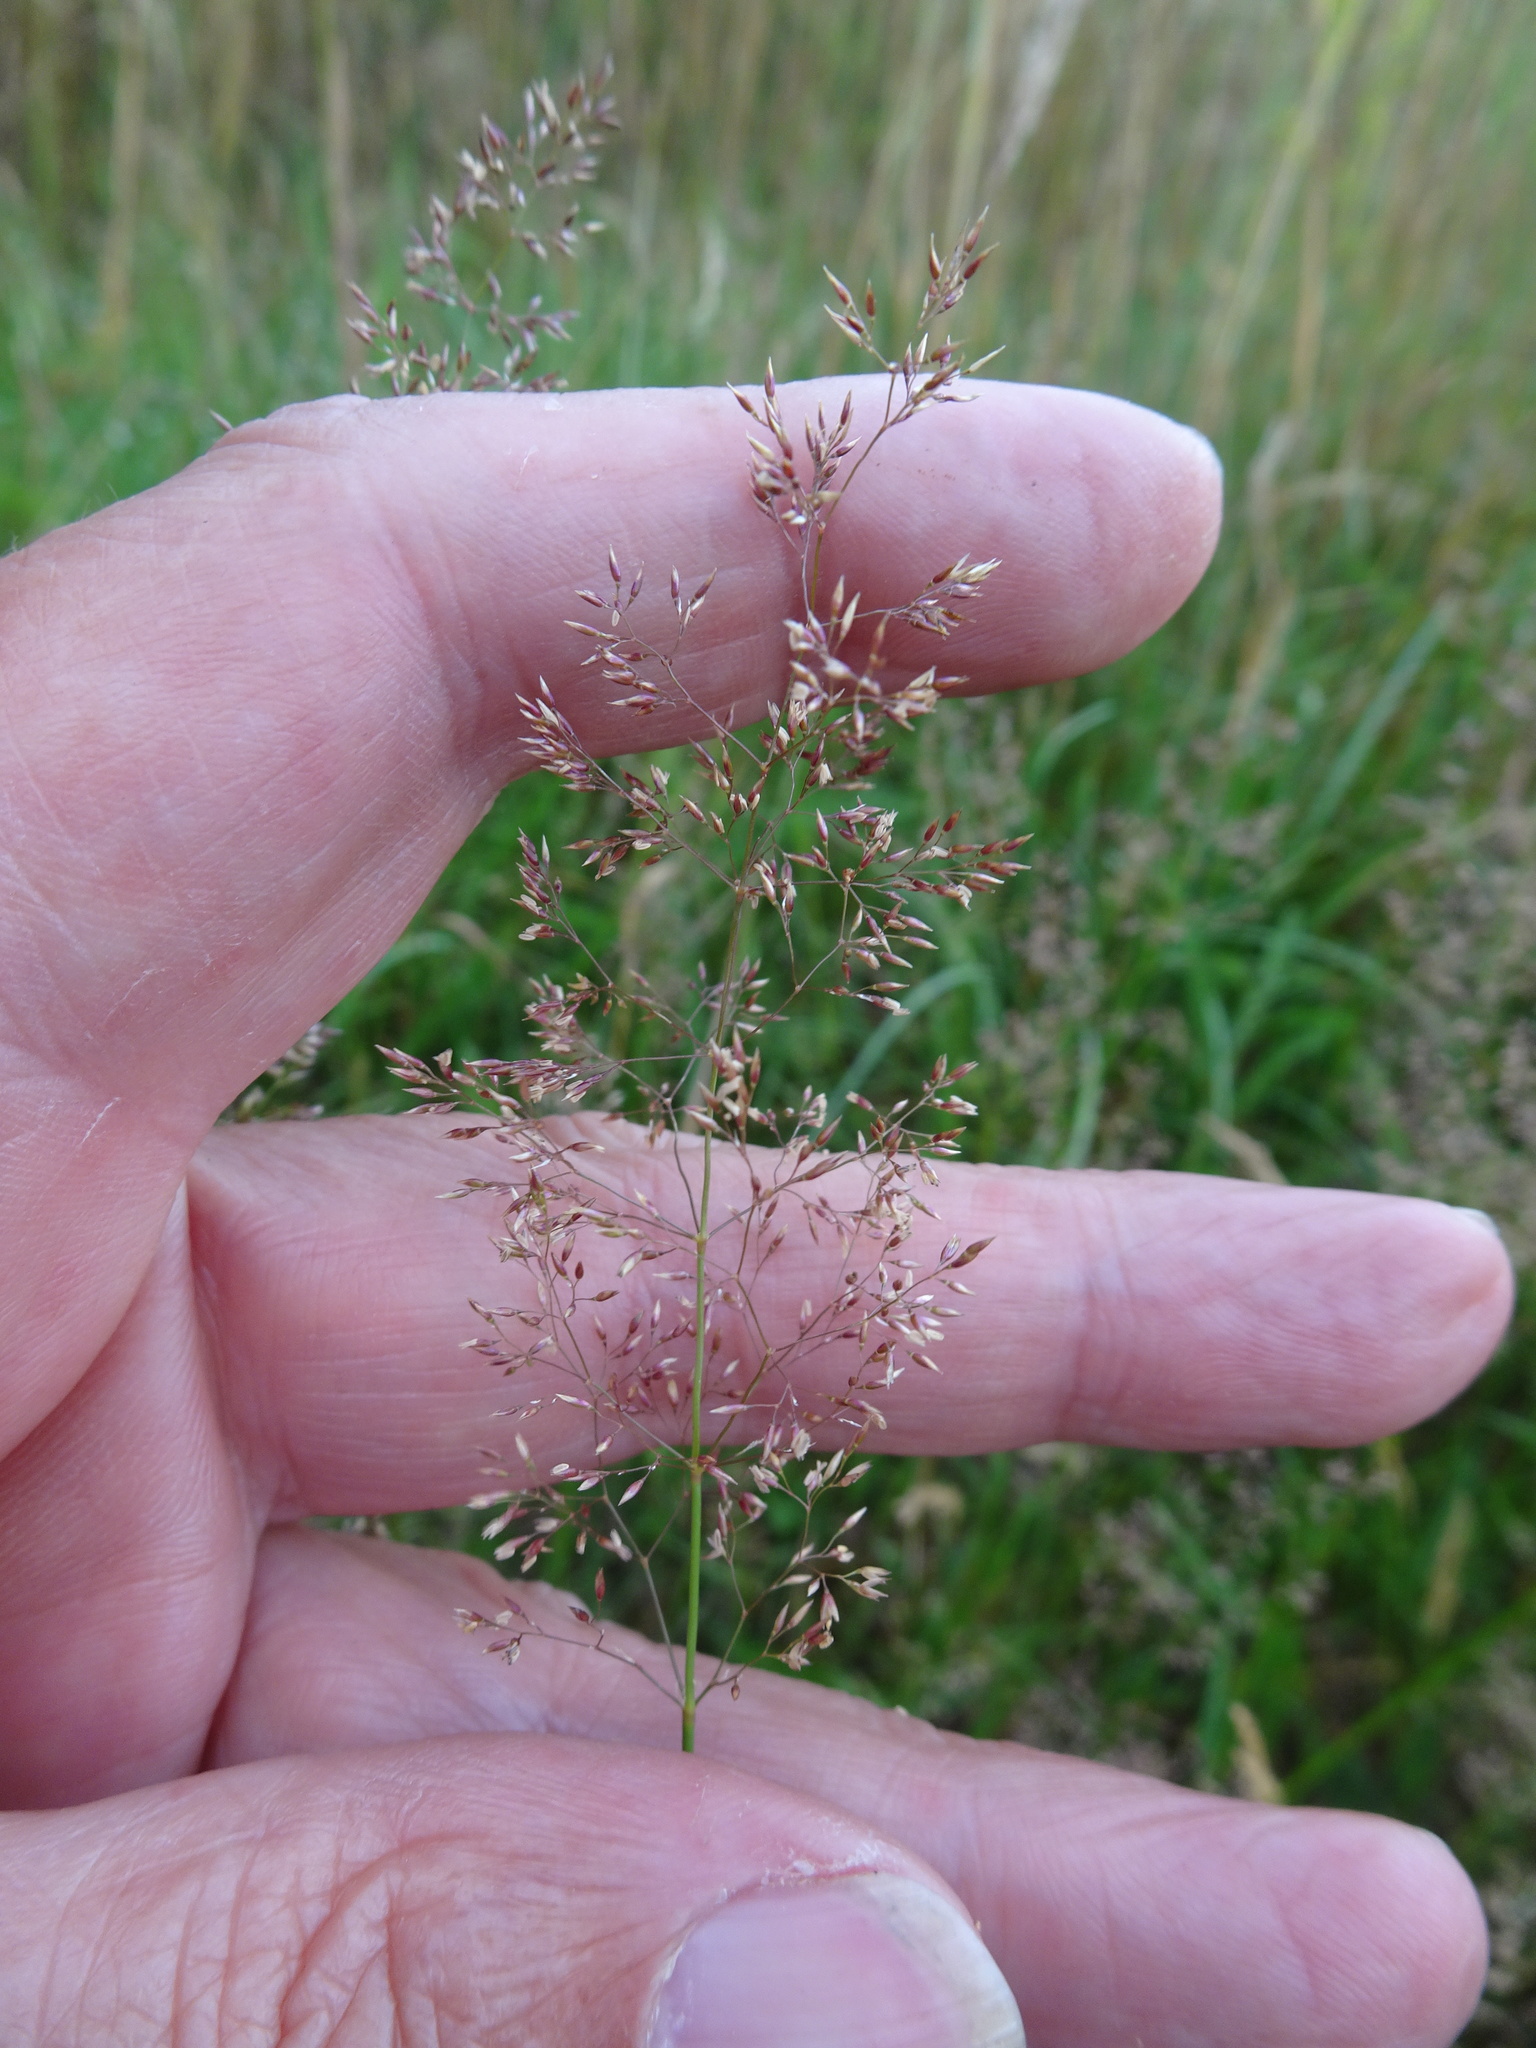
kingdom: Plantae
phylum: Tracheophyta
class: Liliopsida
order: Poales
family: Poaceae
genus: Agrostis
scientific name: Agrostis capillaris
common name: Colonial bentgrass
